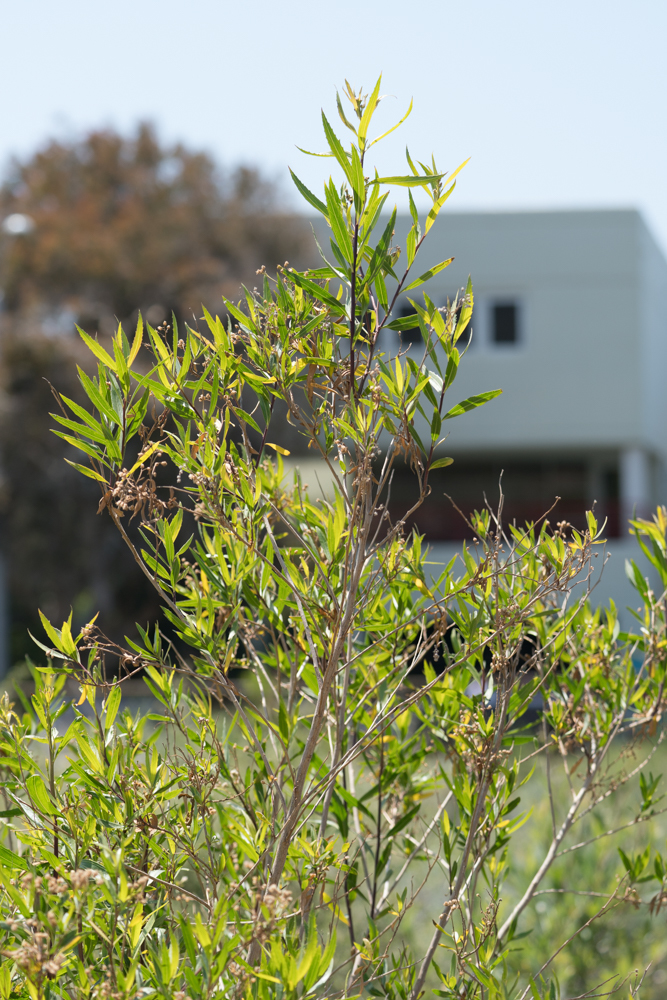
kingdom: Plantae
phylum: Tracheophyta
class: Magnoliopsida
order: Asterales
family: Asteraceae
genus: Baccharis
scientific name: Baccharis salicifolia
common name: Sticky baccharis
